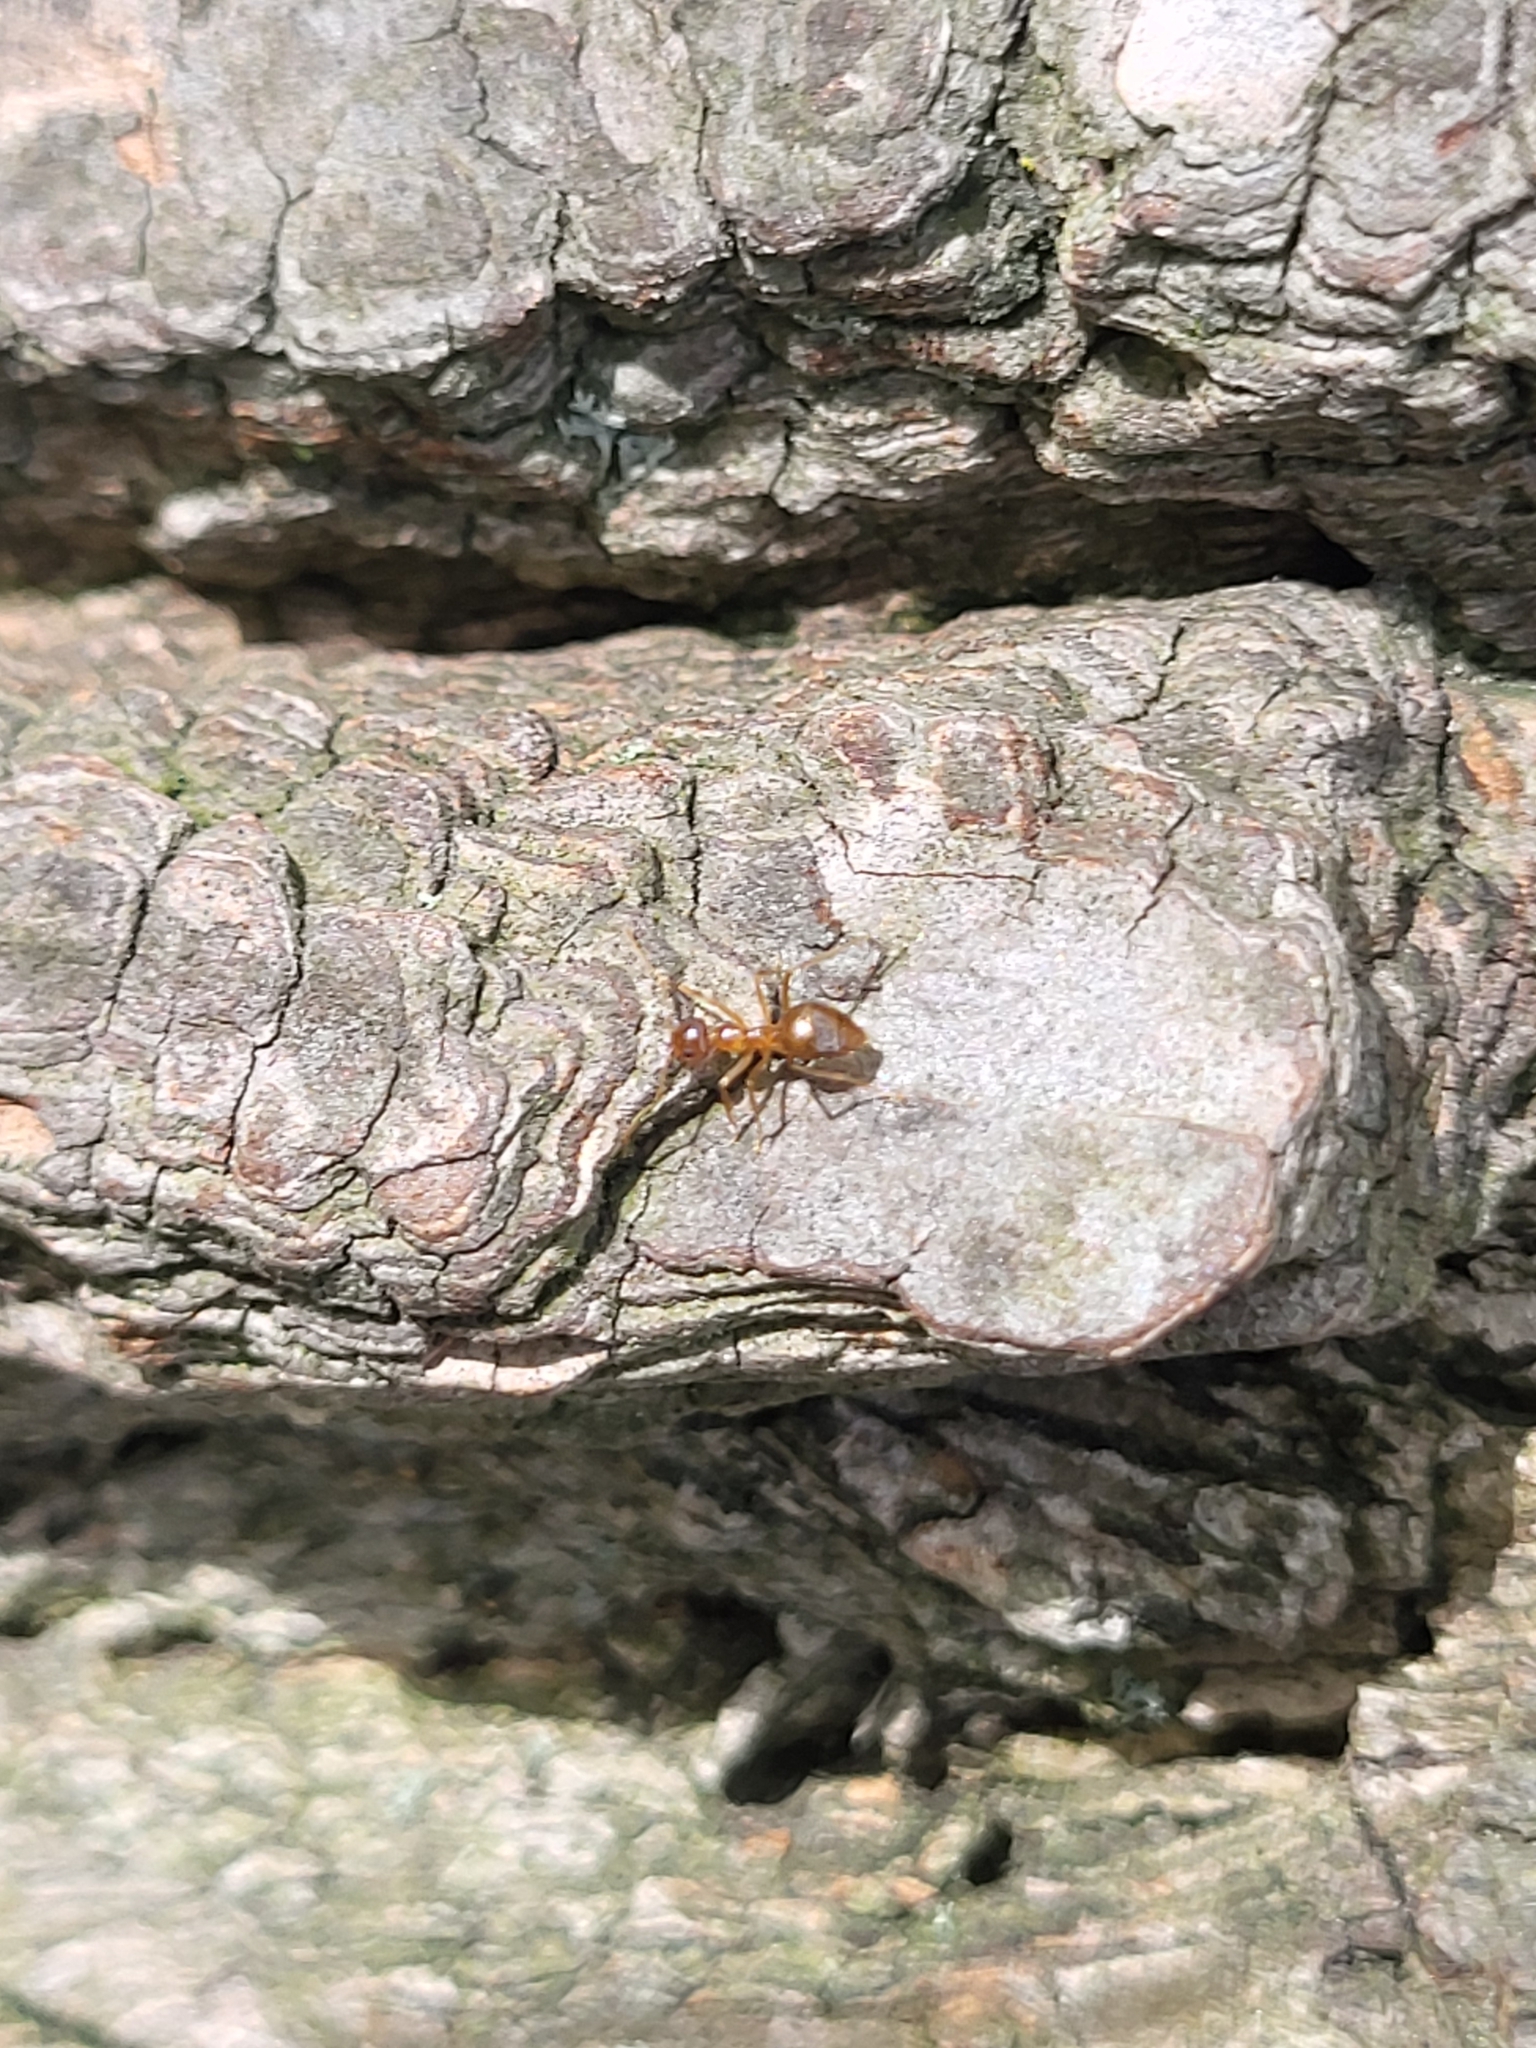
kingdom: Animalia
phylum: Arthropoda
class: Insecta
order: Hymenoptera
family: Formicidae
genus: Prenolepis
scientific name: Prenolepis imparis
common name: Small honey ant
